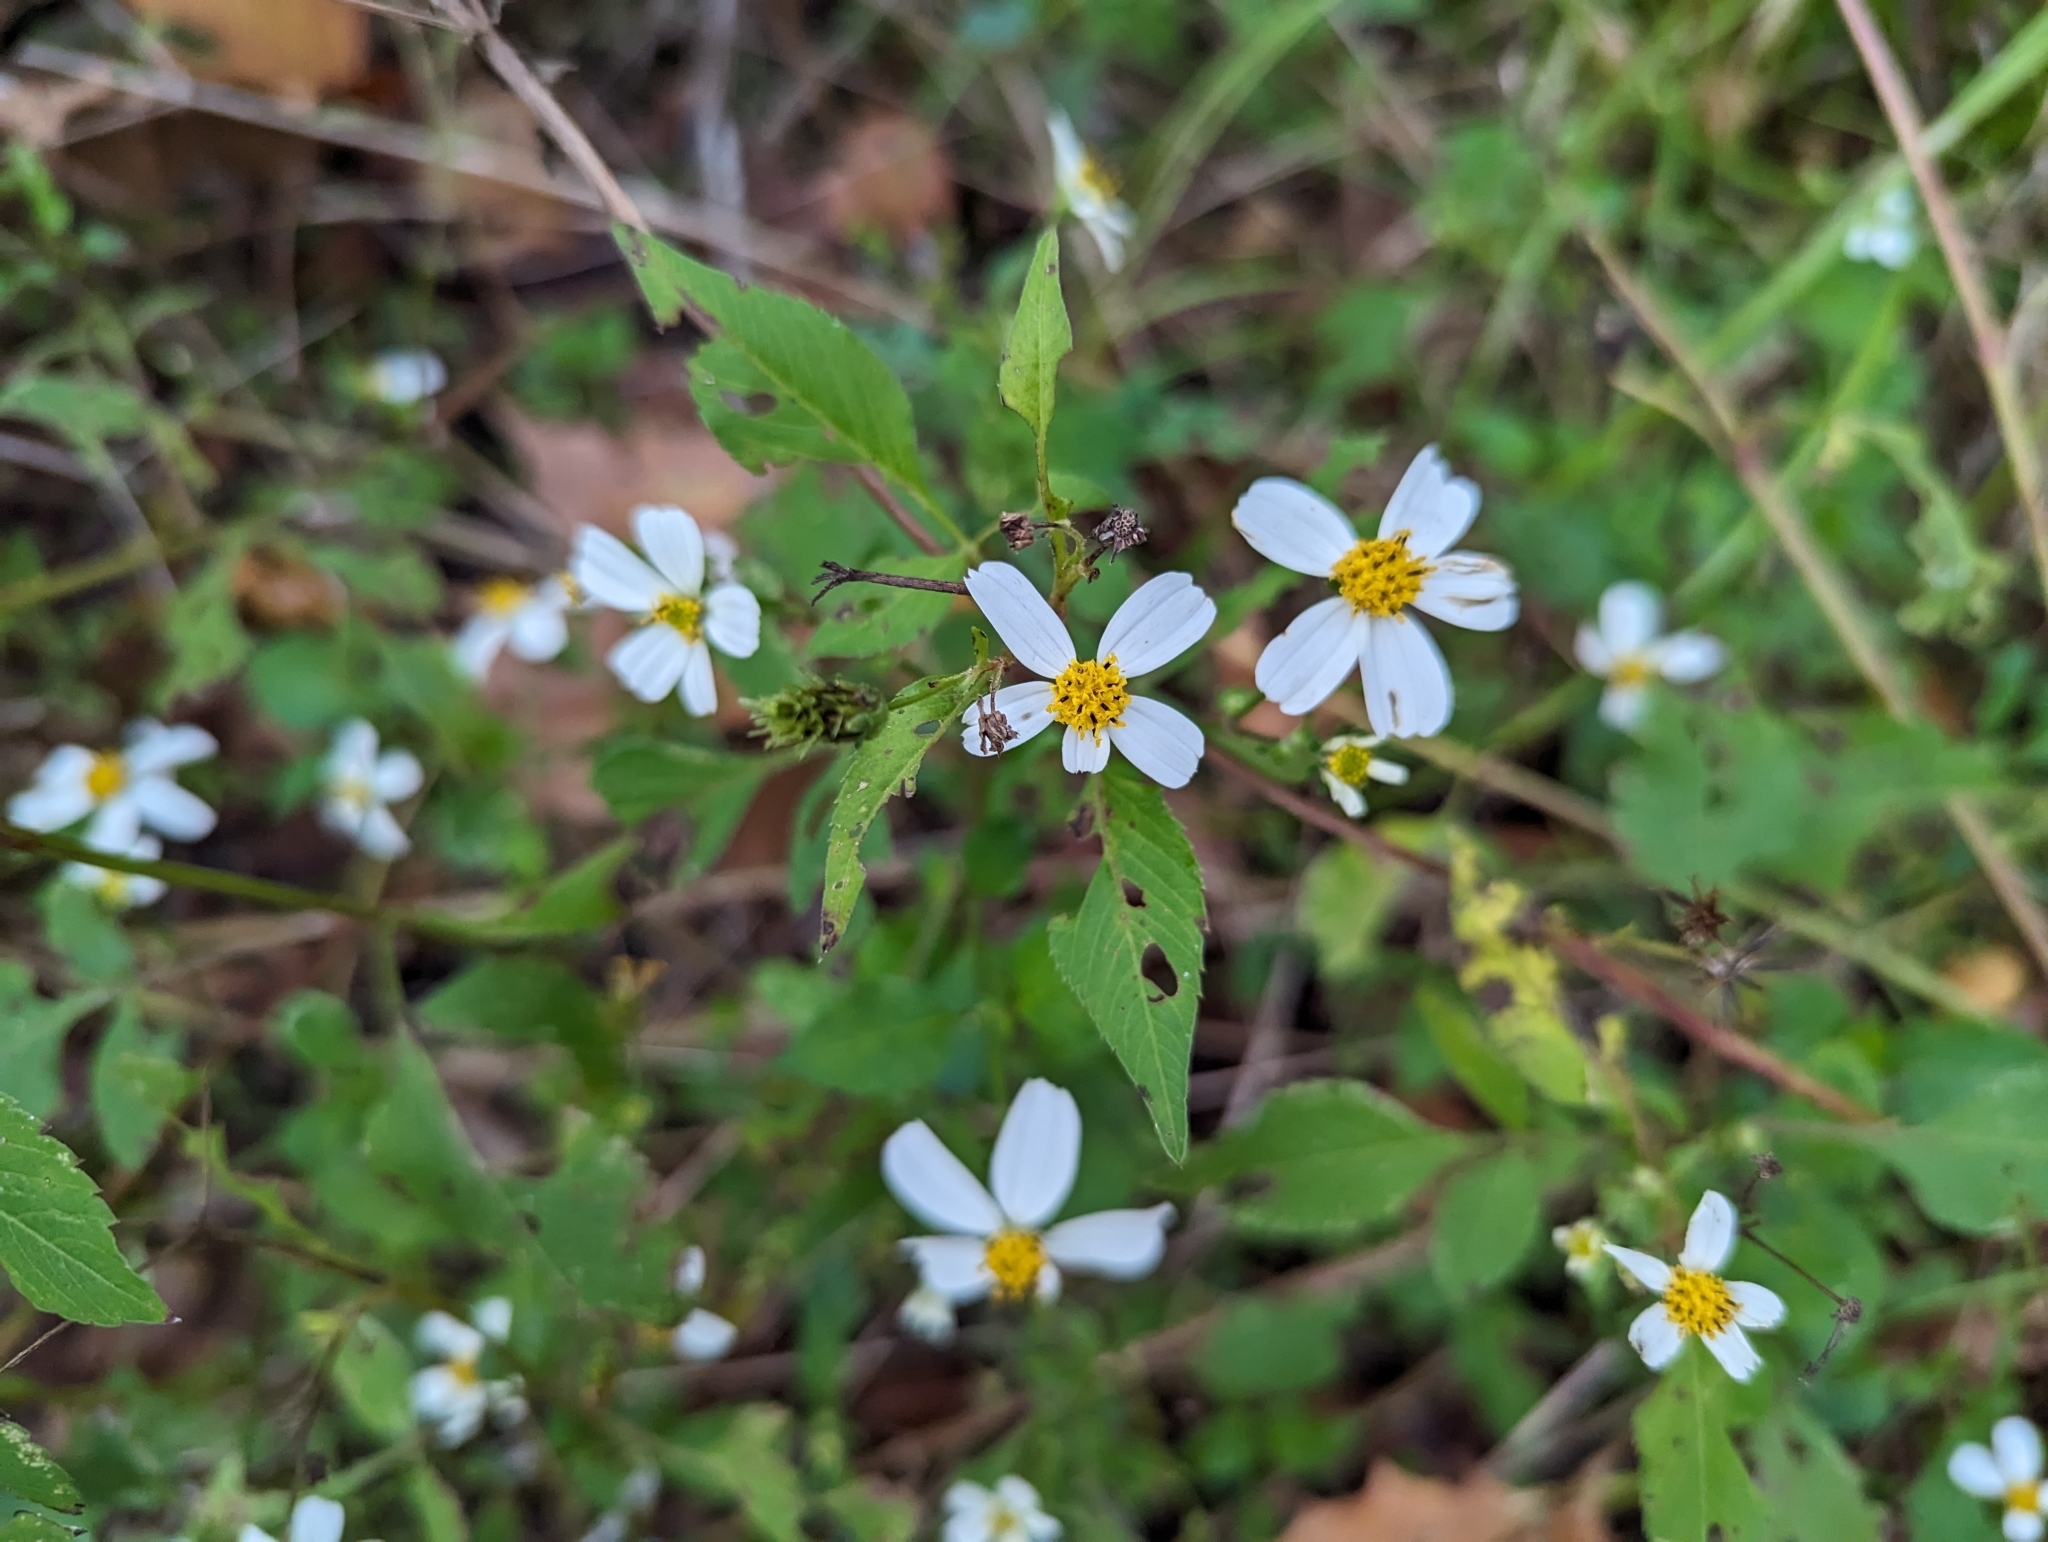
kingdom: Plantae
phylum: Tracheophyta
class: Magnoliopsida
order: Asterales
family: Asteraceae
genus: Bidens
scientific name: Bidens alba
